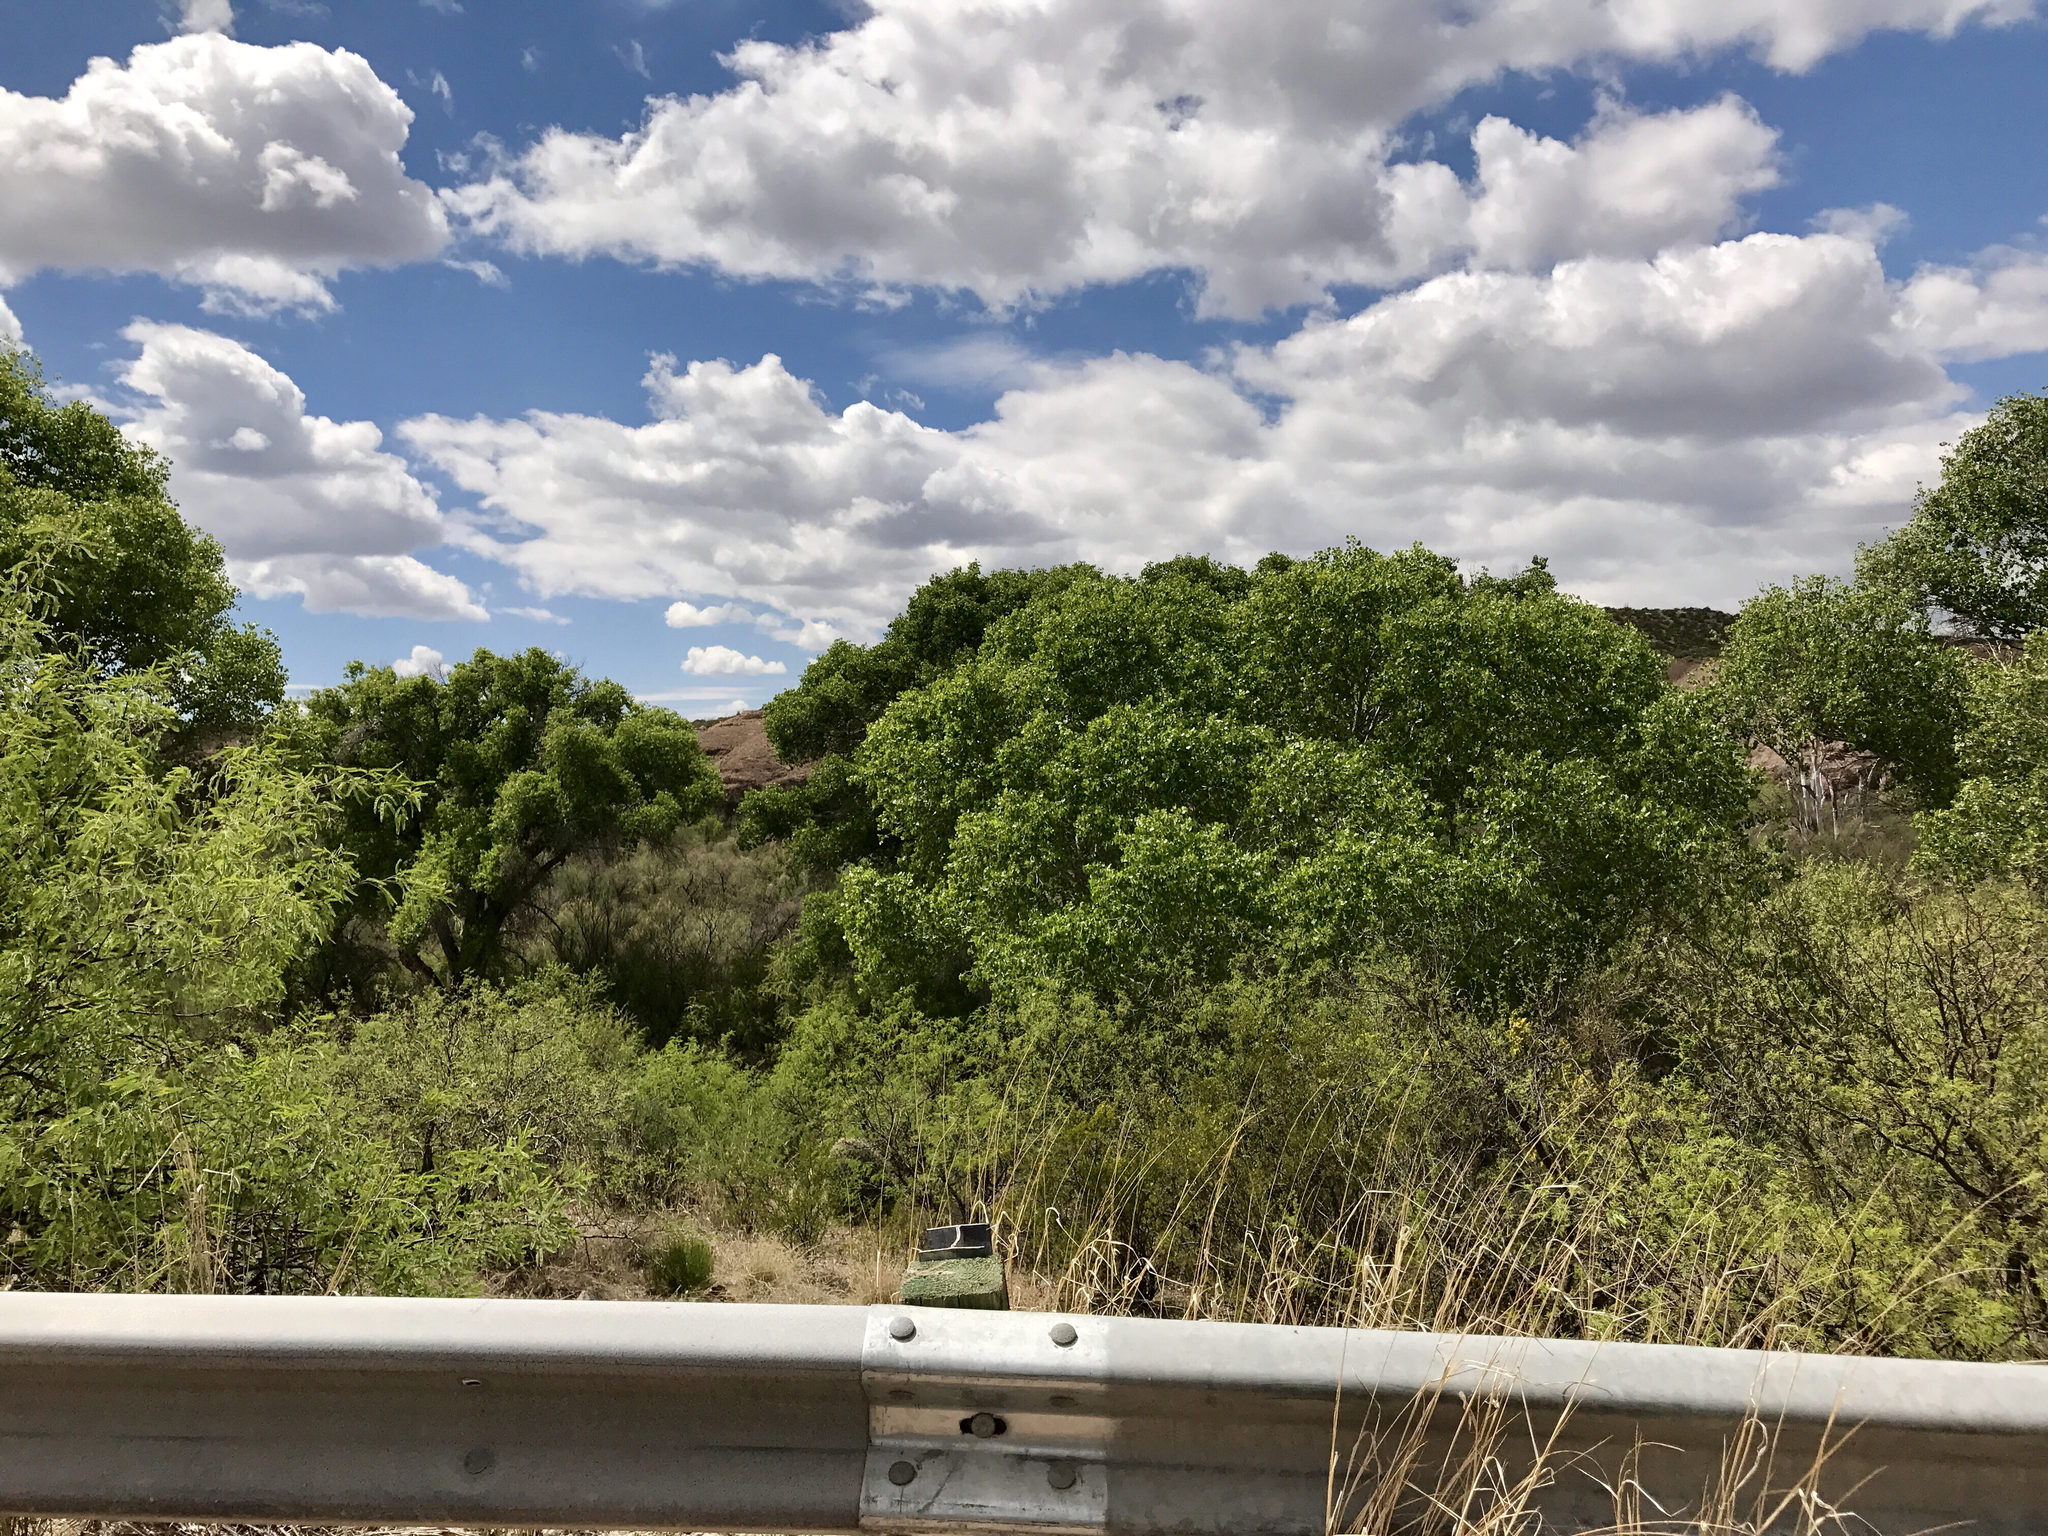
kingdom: Plantae
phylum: Tracheophyta
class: Magnoliopsida
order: Malpighiales
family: Salicaceae
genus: Populus
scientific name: Populus fremontii
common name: Fremont's cottonwood
